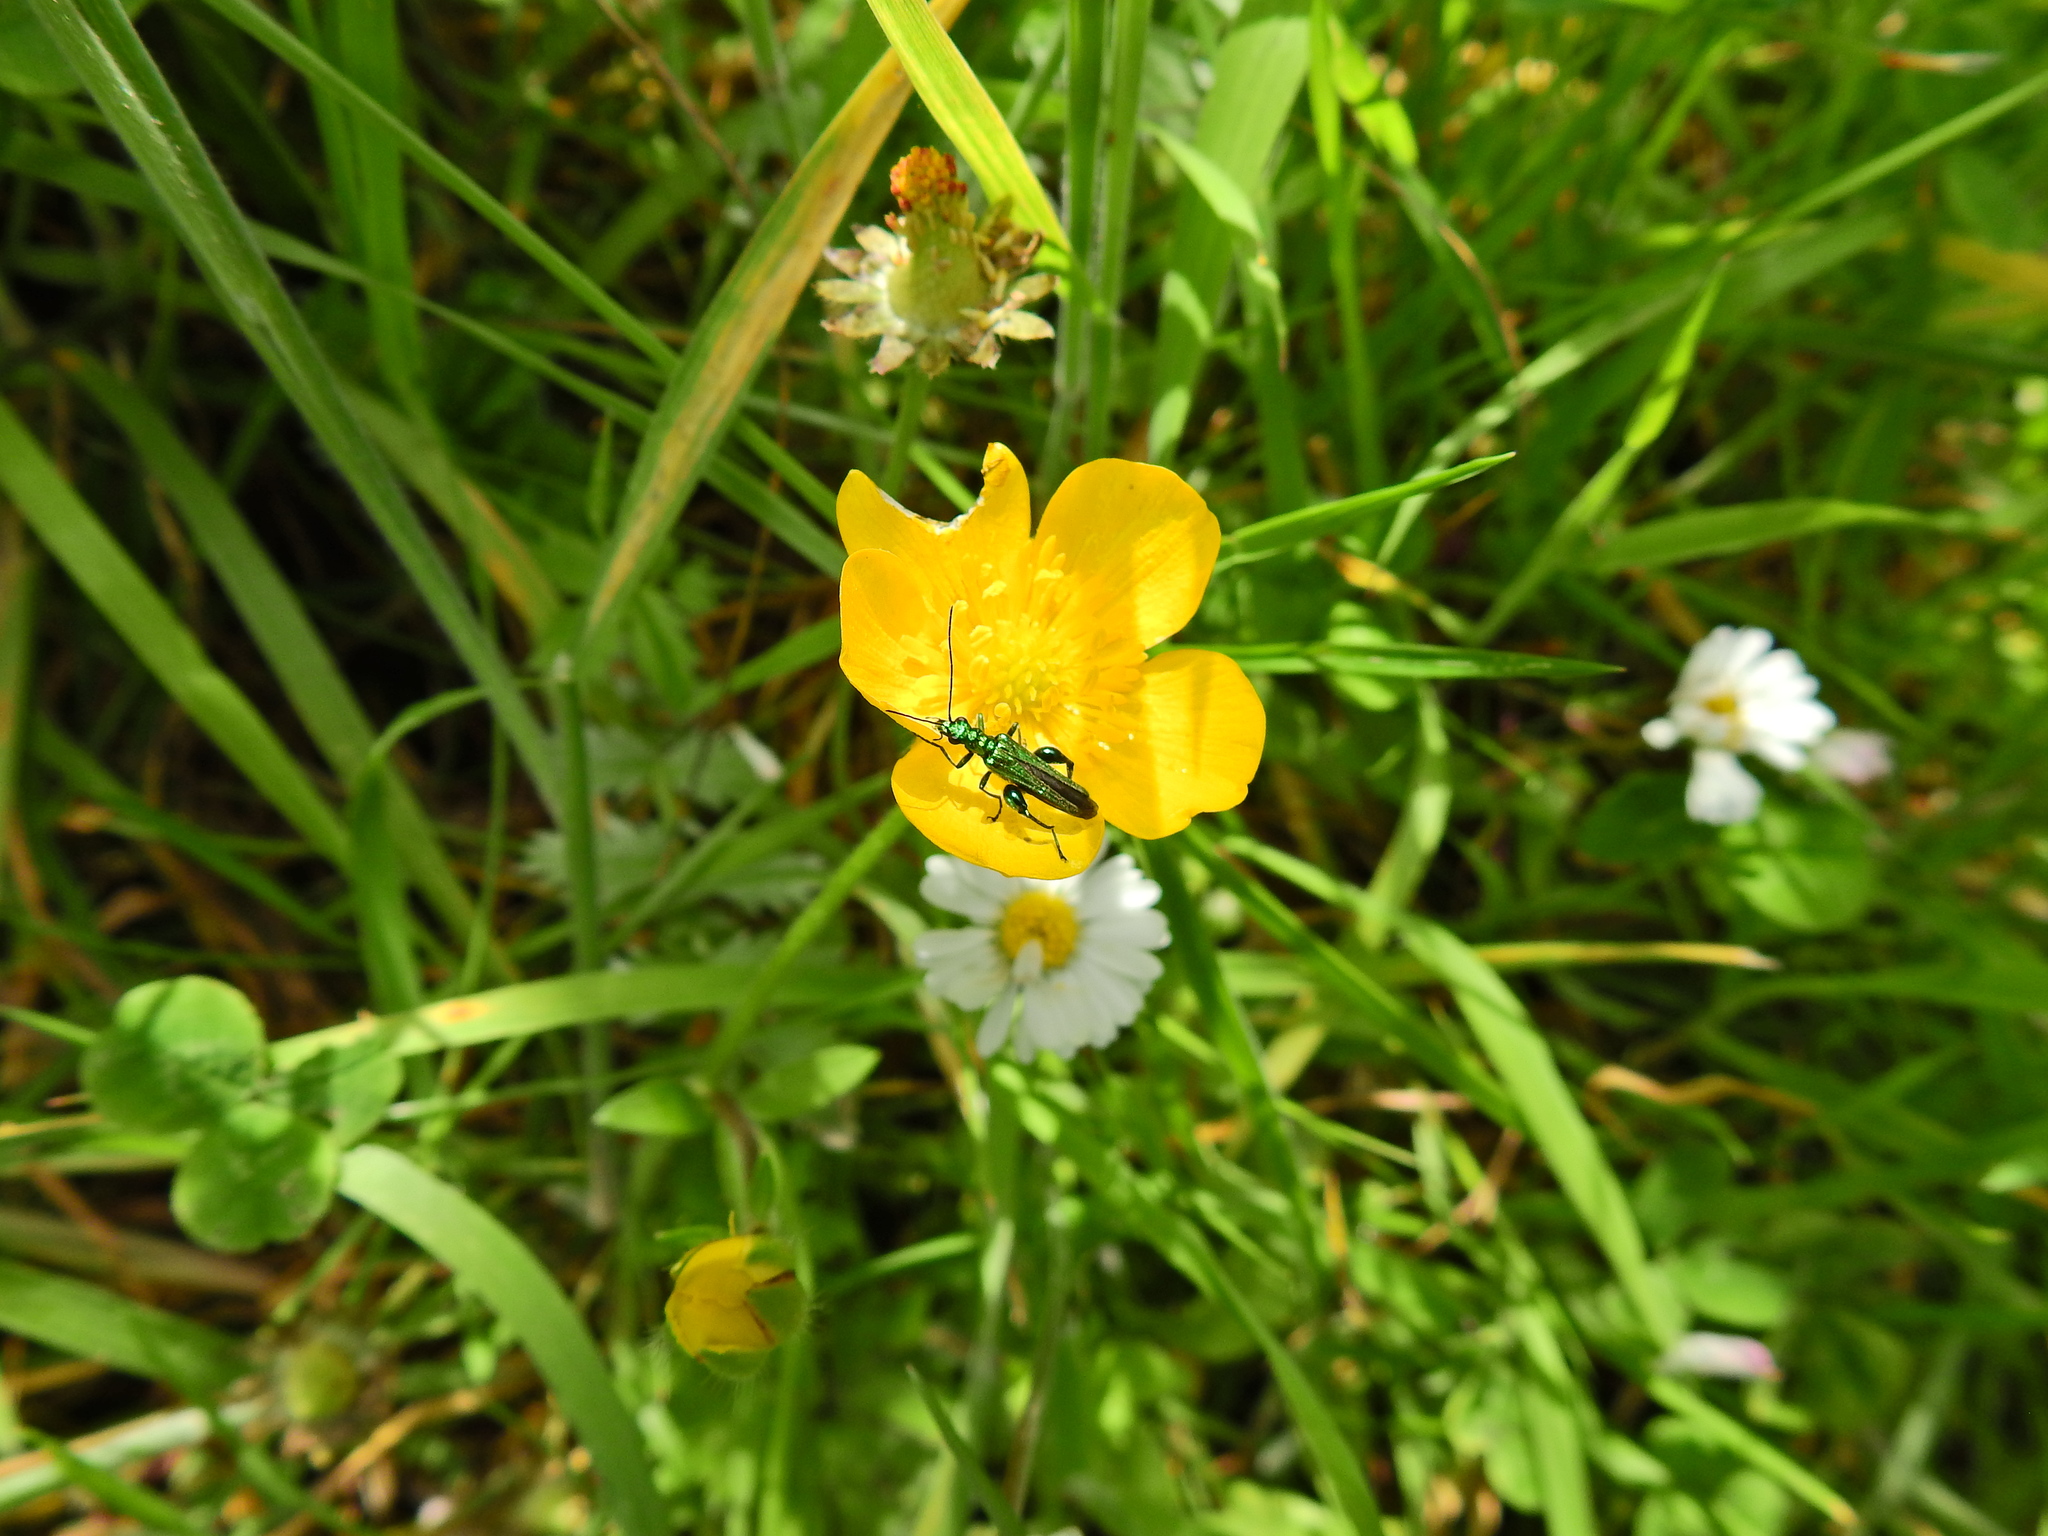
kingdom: Animalia
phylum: Arthropoda
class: Insecta
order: Coleoptera
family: Oedemeridae
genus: Oedemera
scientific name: Oedemera nobilis
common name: Swollen-thighed beetle
